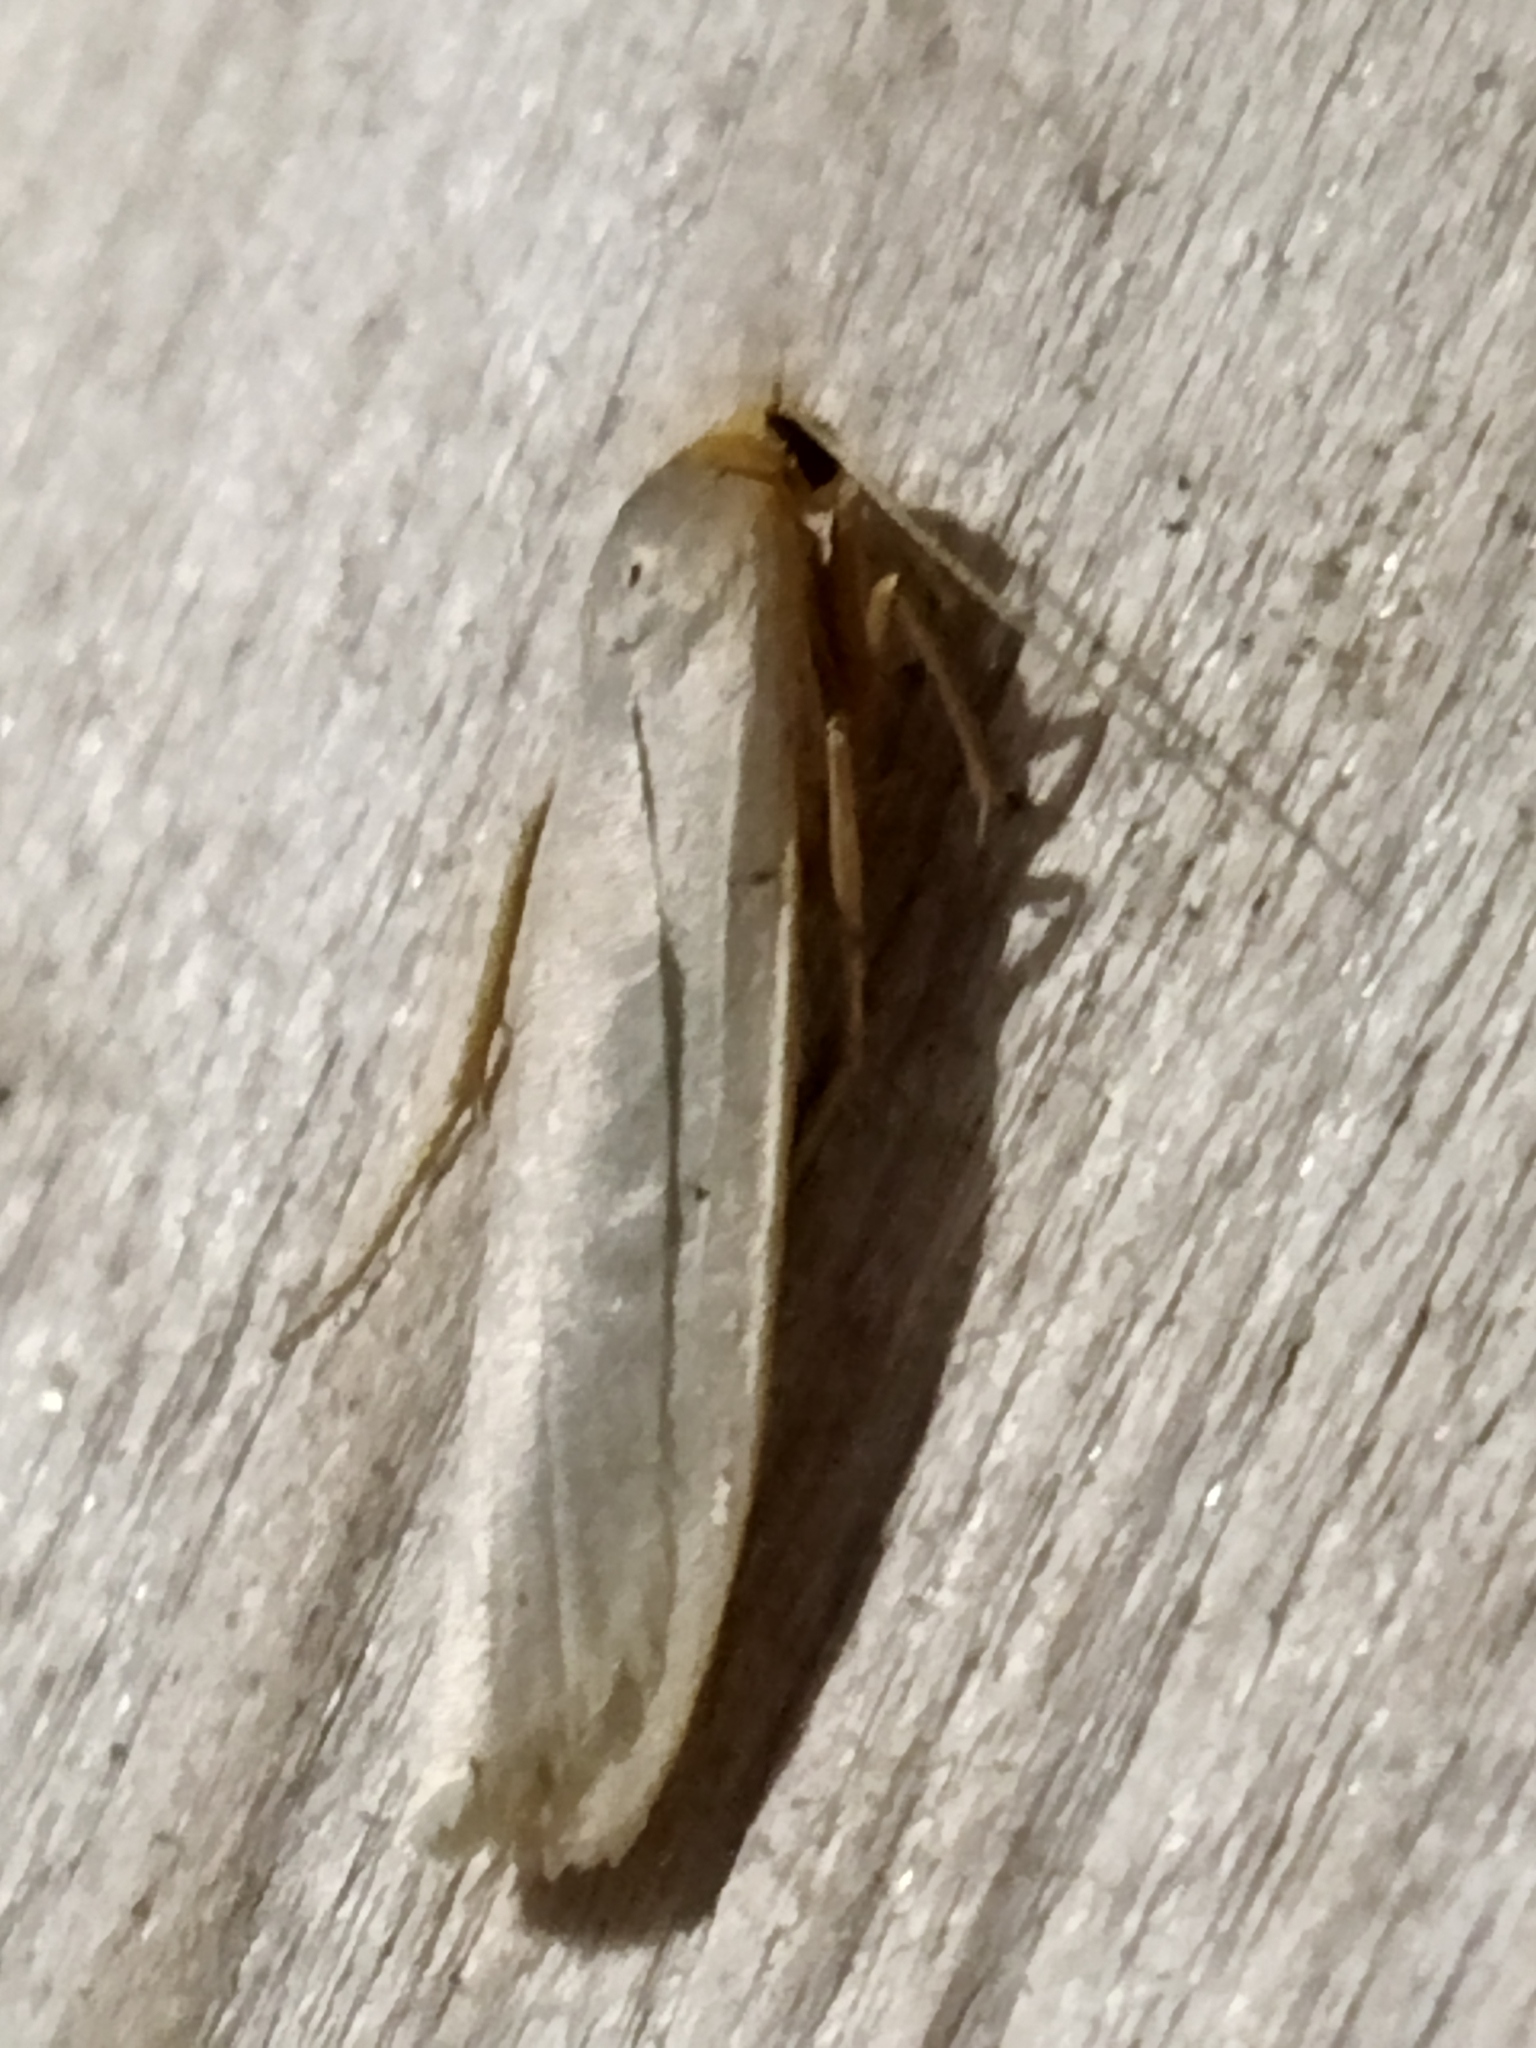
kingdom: Animalia
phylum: Arthropoda
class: Insecta
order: Lepidoptera
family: Erebidae
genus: Eilema
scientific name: Eilema caniola
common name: Hoary footman
